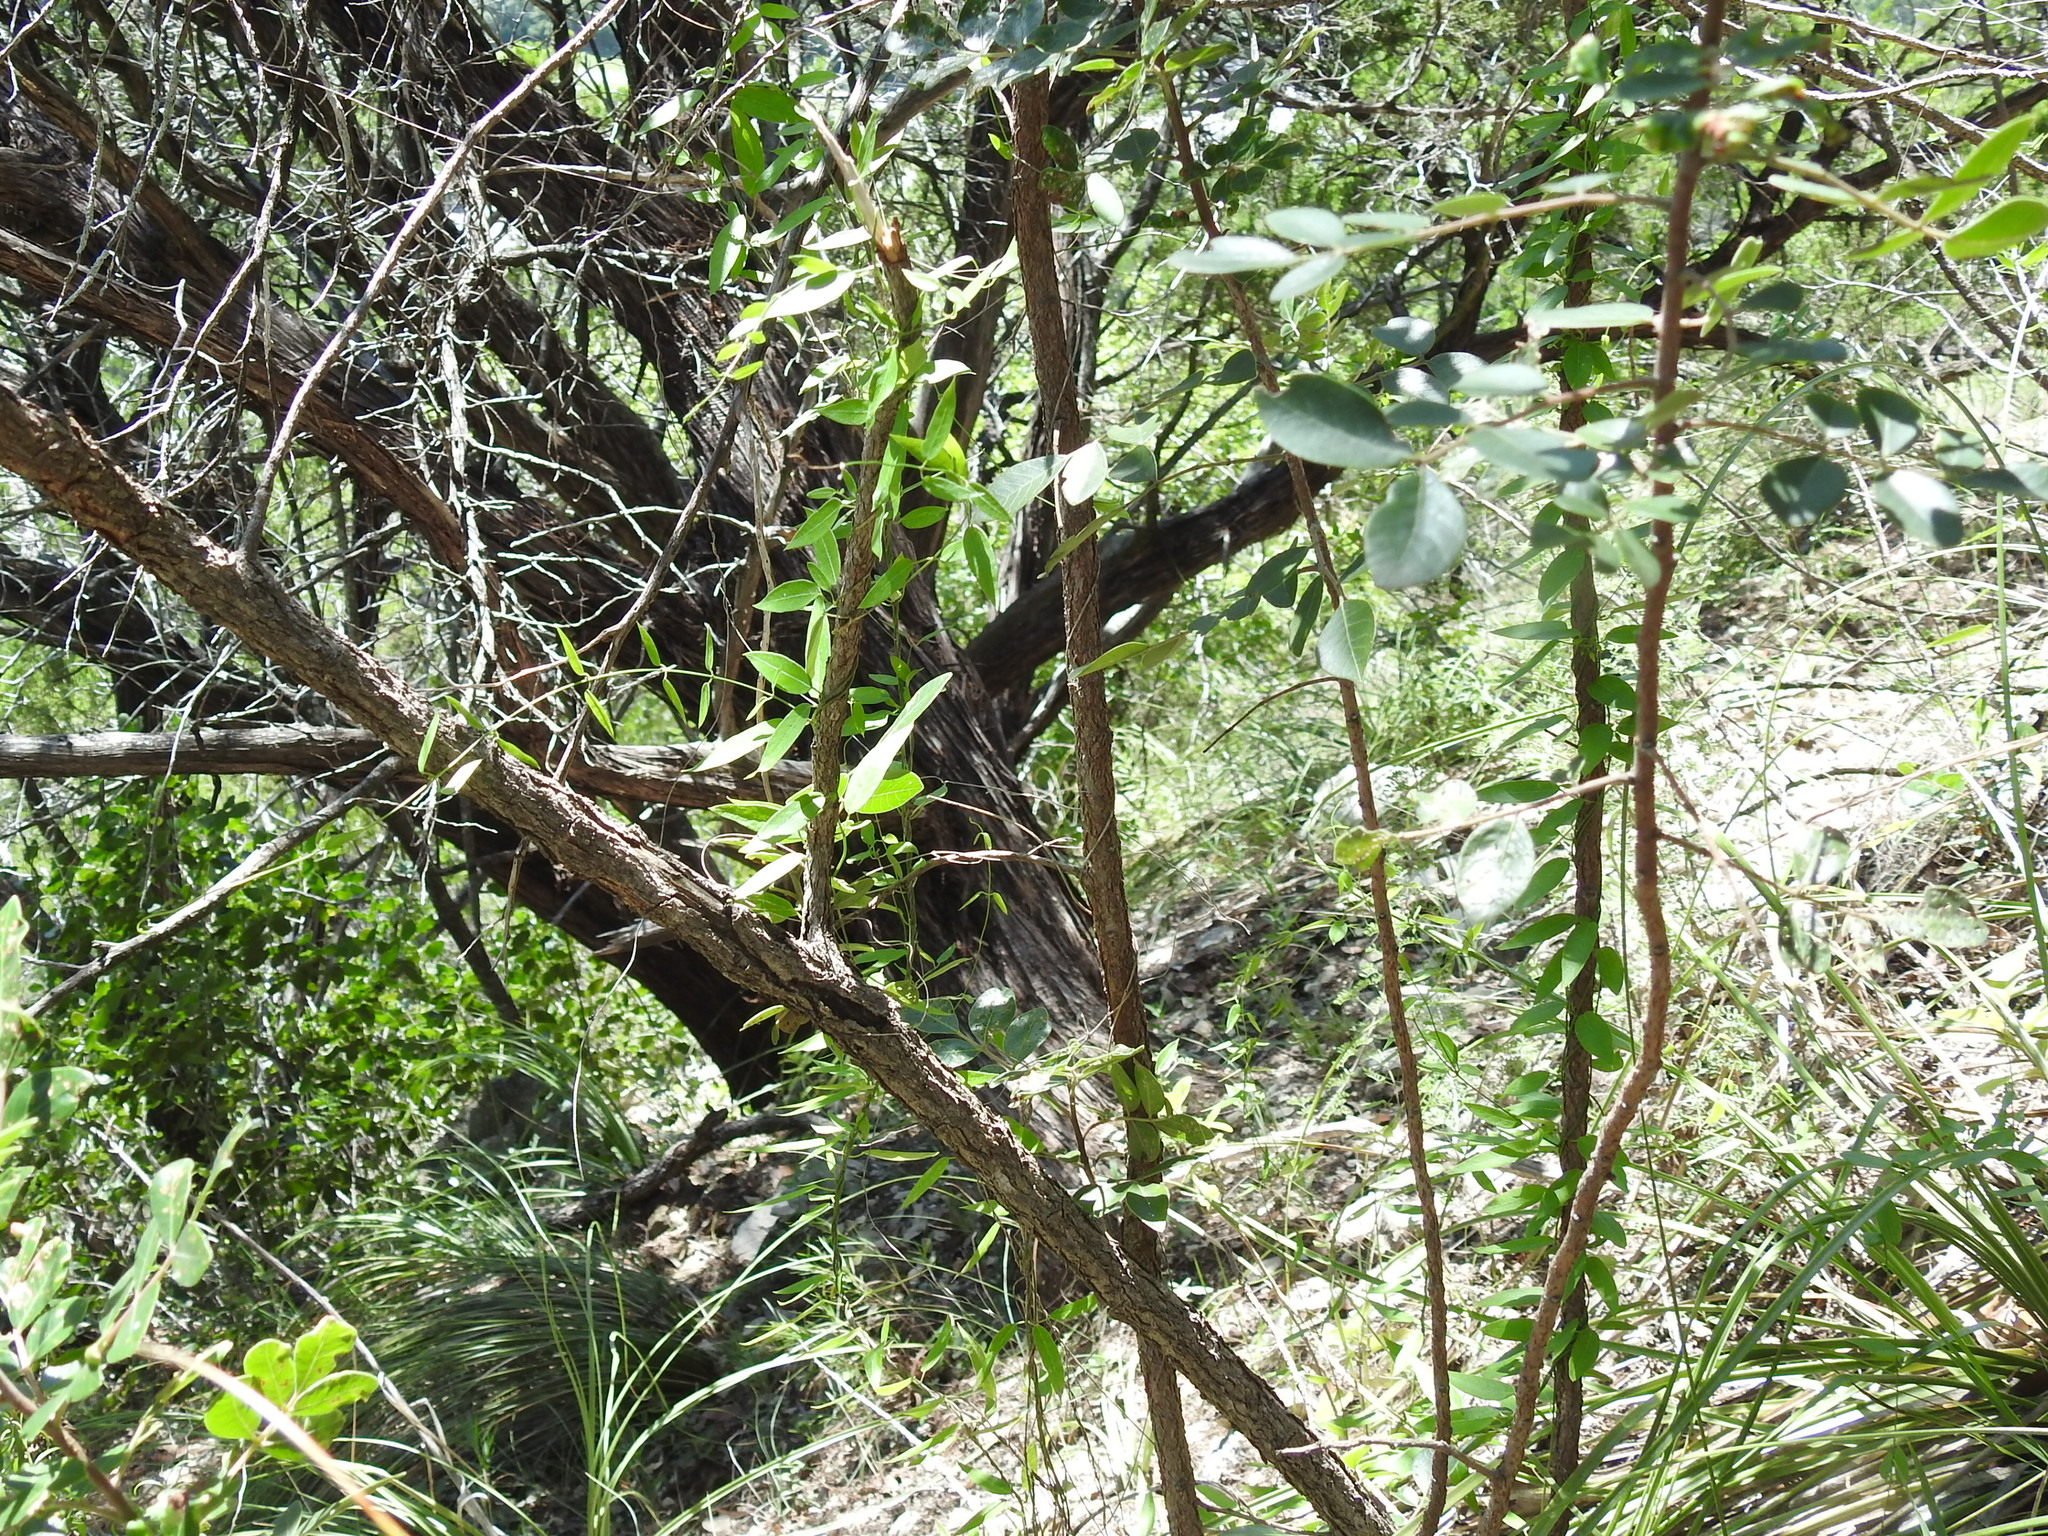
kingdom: Plantae
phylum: Tracheophyta
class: Magnoliopsida
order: Gentianales
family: Apocynaceae
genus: Metastelma
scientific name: Metastelma barbigerum
